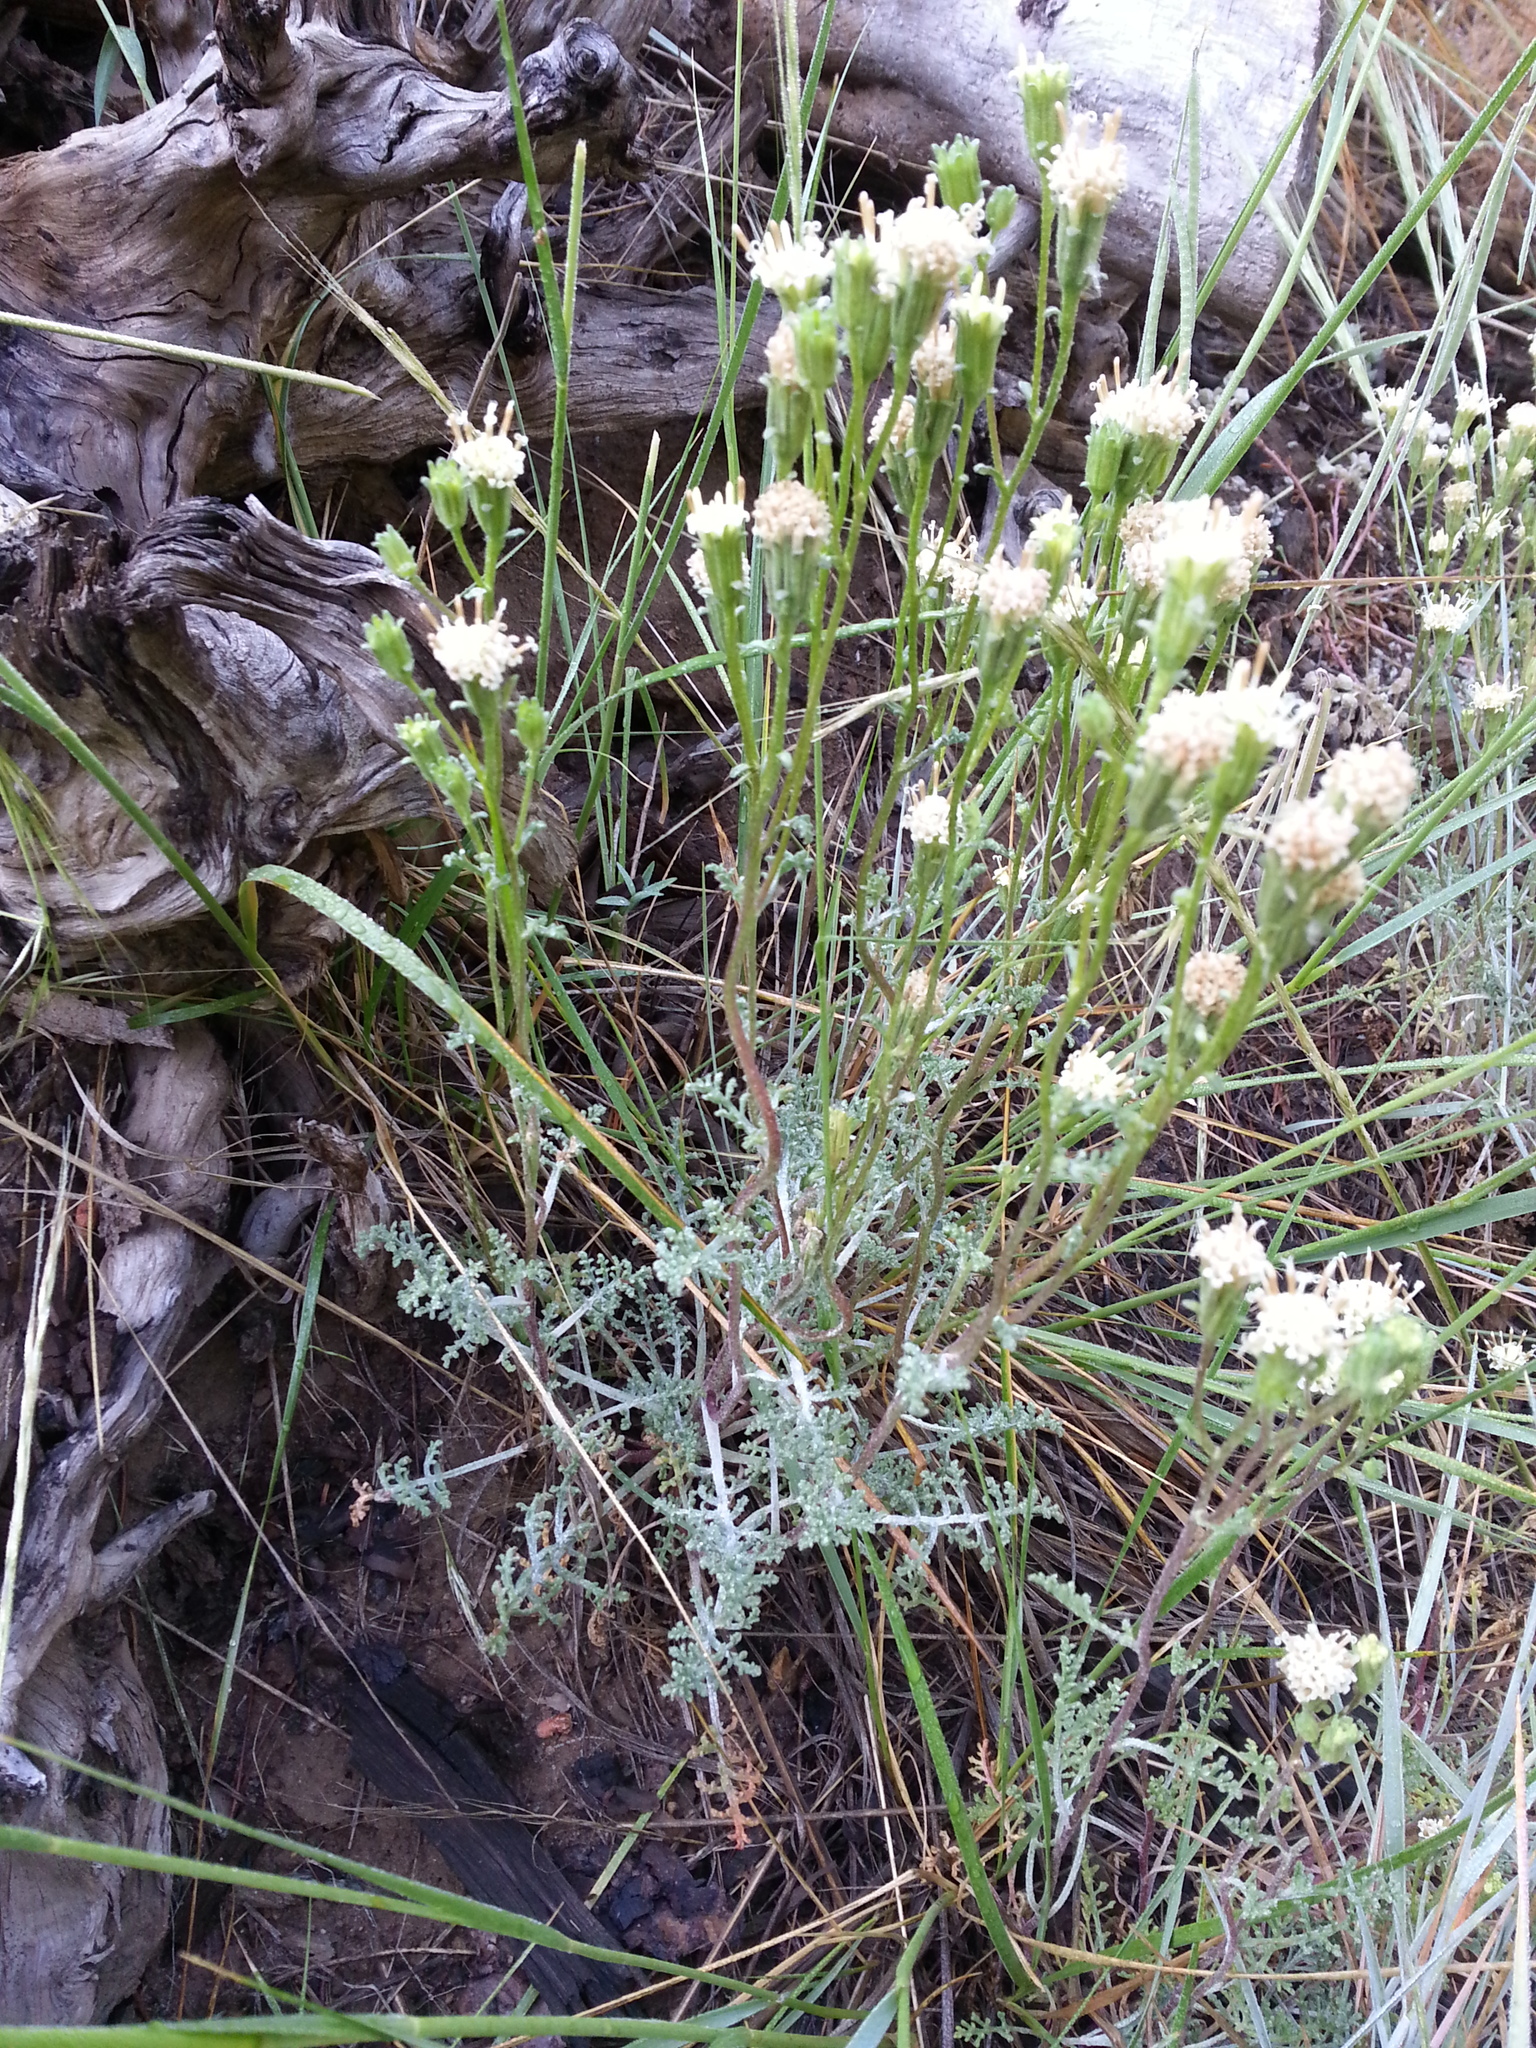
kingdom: Plantae
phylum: Tracheophyta
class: Magnoliopsida
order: Asterales
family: Asteraceae
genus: Chaenactis
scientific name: Chaenactis douglasii
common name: Hoary pincushion
